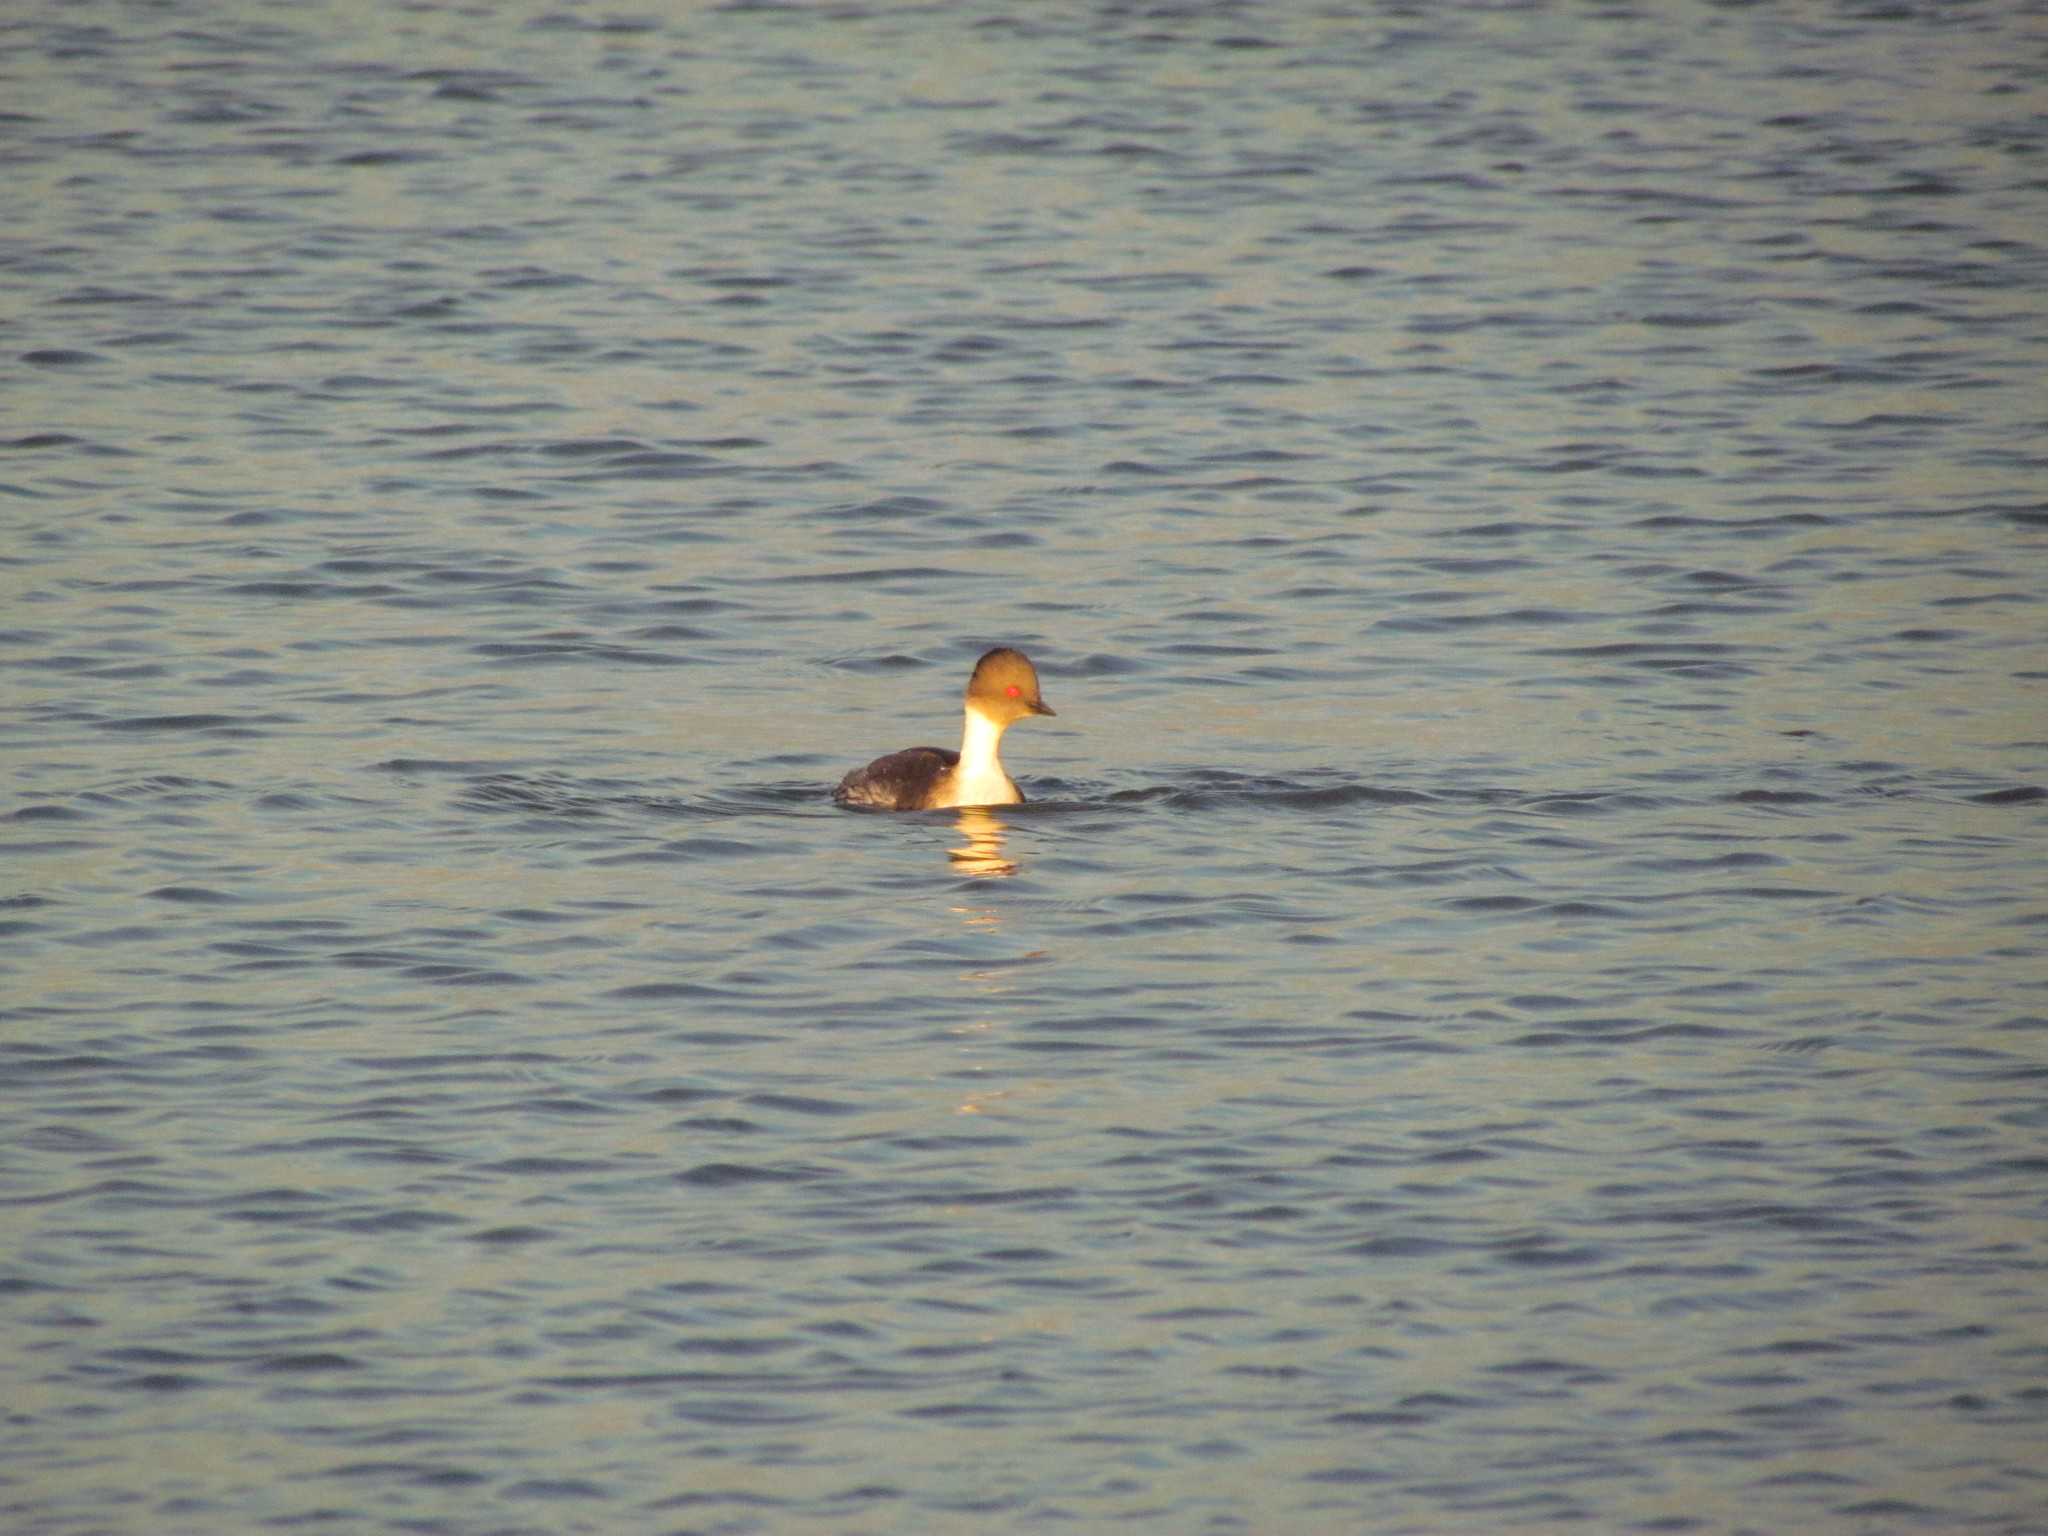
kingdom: Animalia
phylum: Chordata
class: Aves
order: Podicipediformes
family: Podicipedidae
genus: Podiceps
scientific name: Podiceps occipitalis
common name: Silvery grebe
